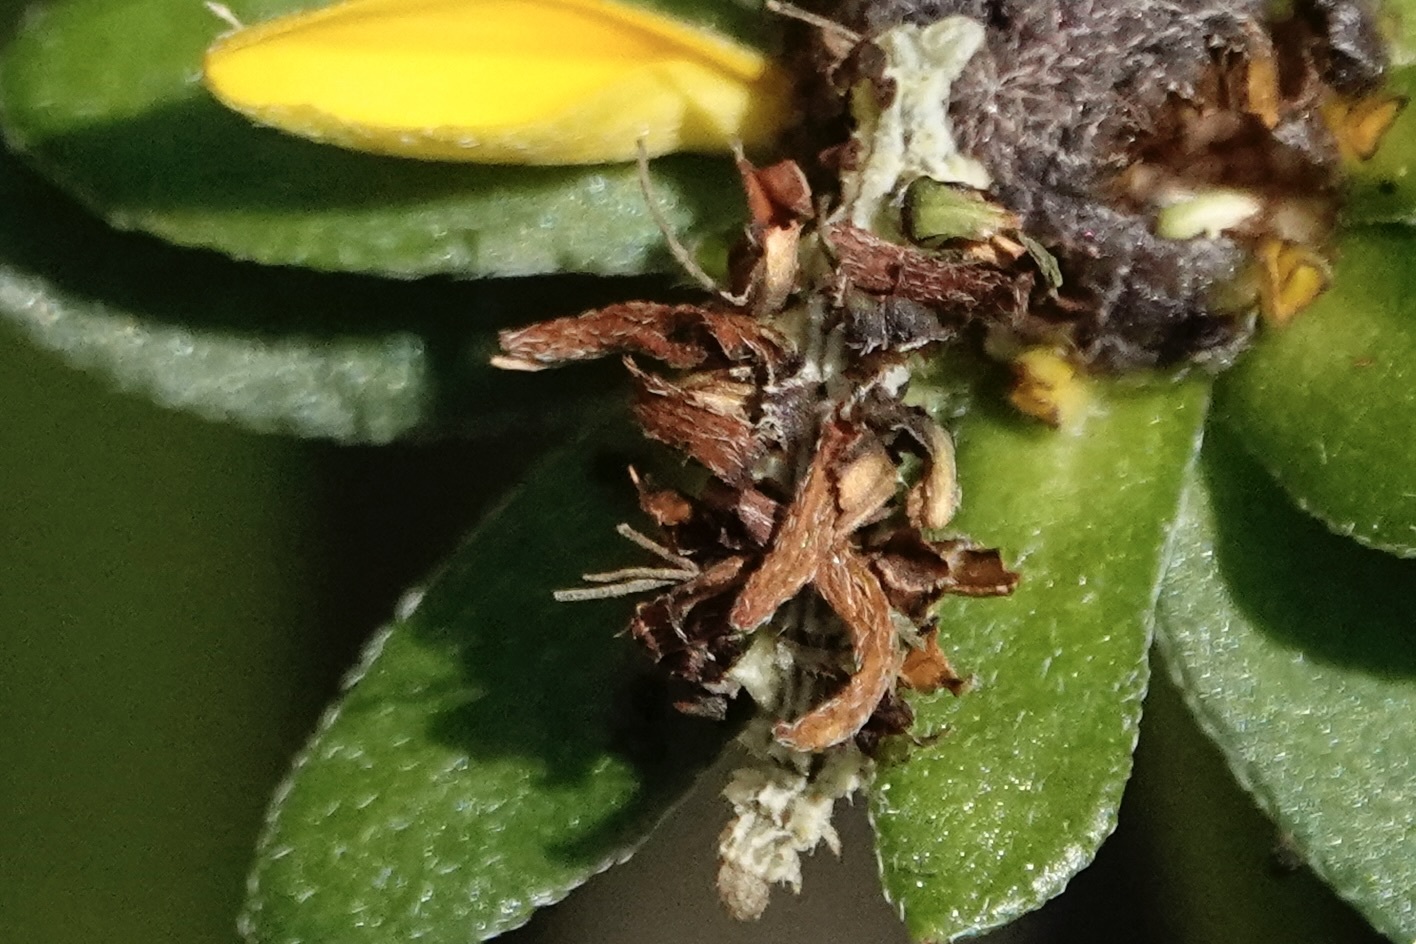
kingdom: Animalia
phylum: Arthropoda
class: Insecta
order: Lepidoptera
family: Geometridae
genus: Synchlora
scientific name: Synchlora
